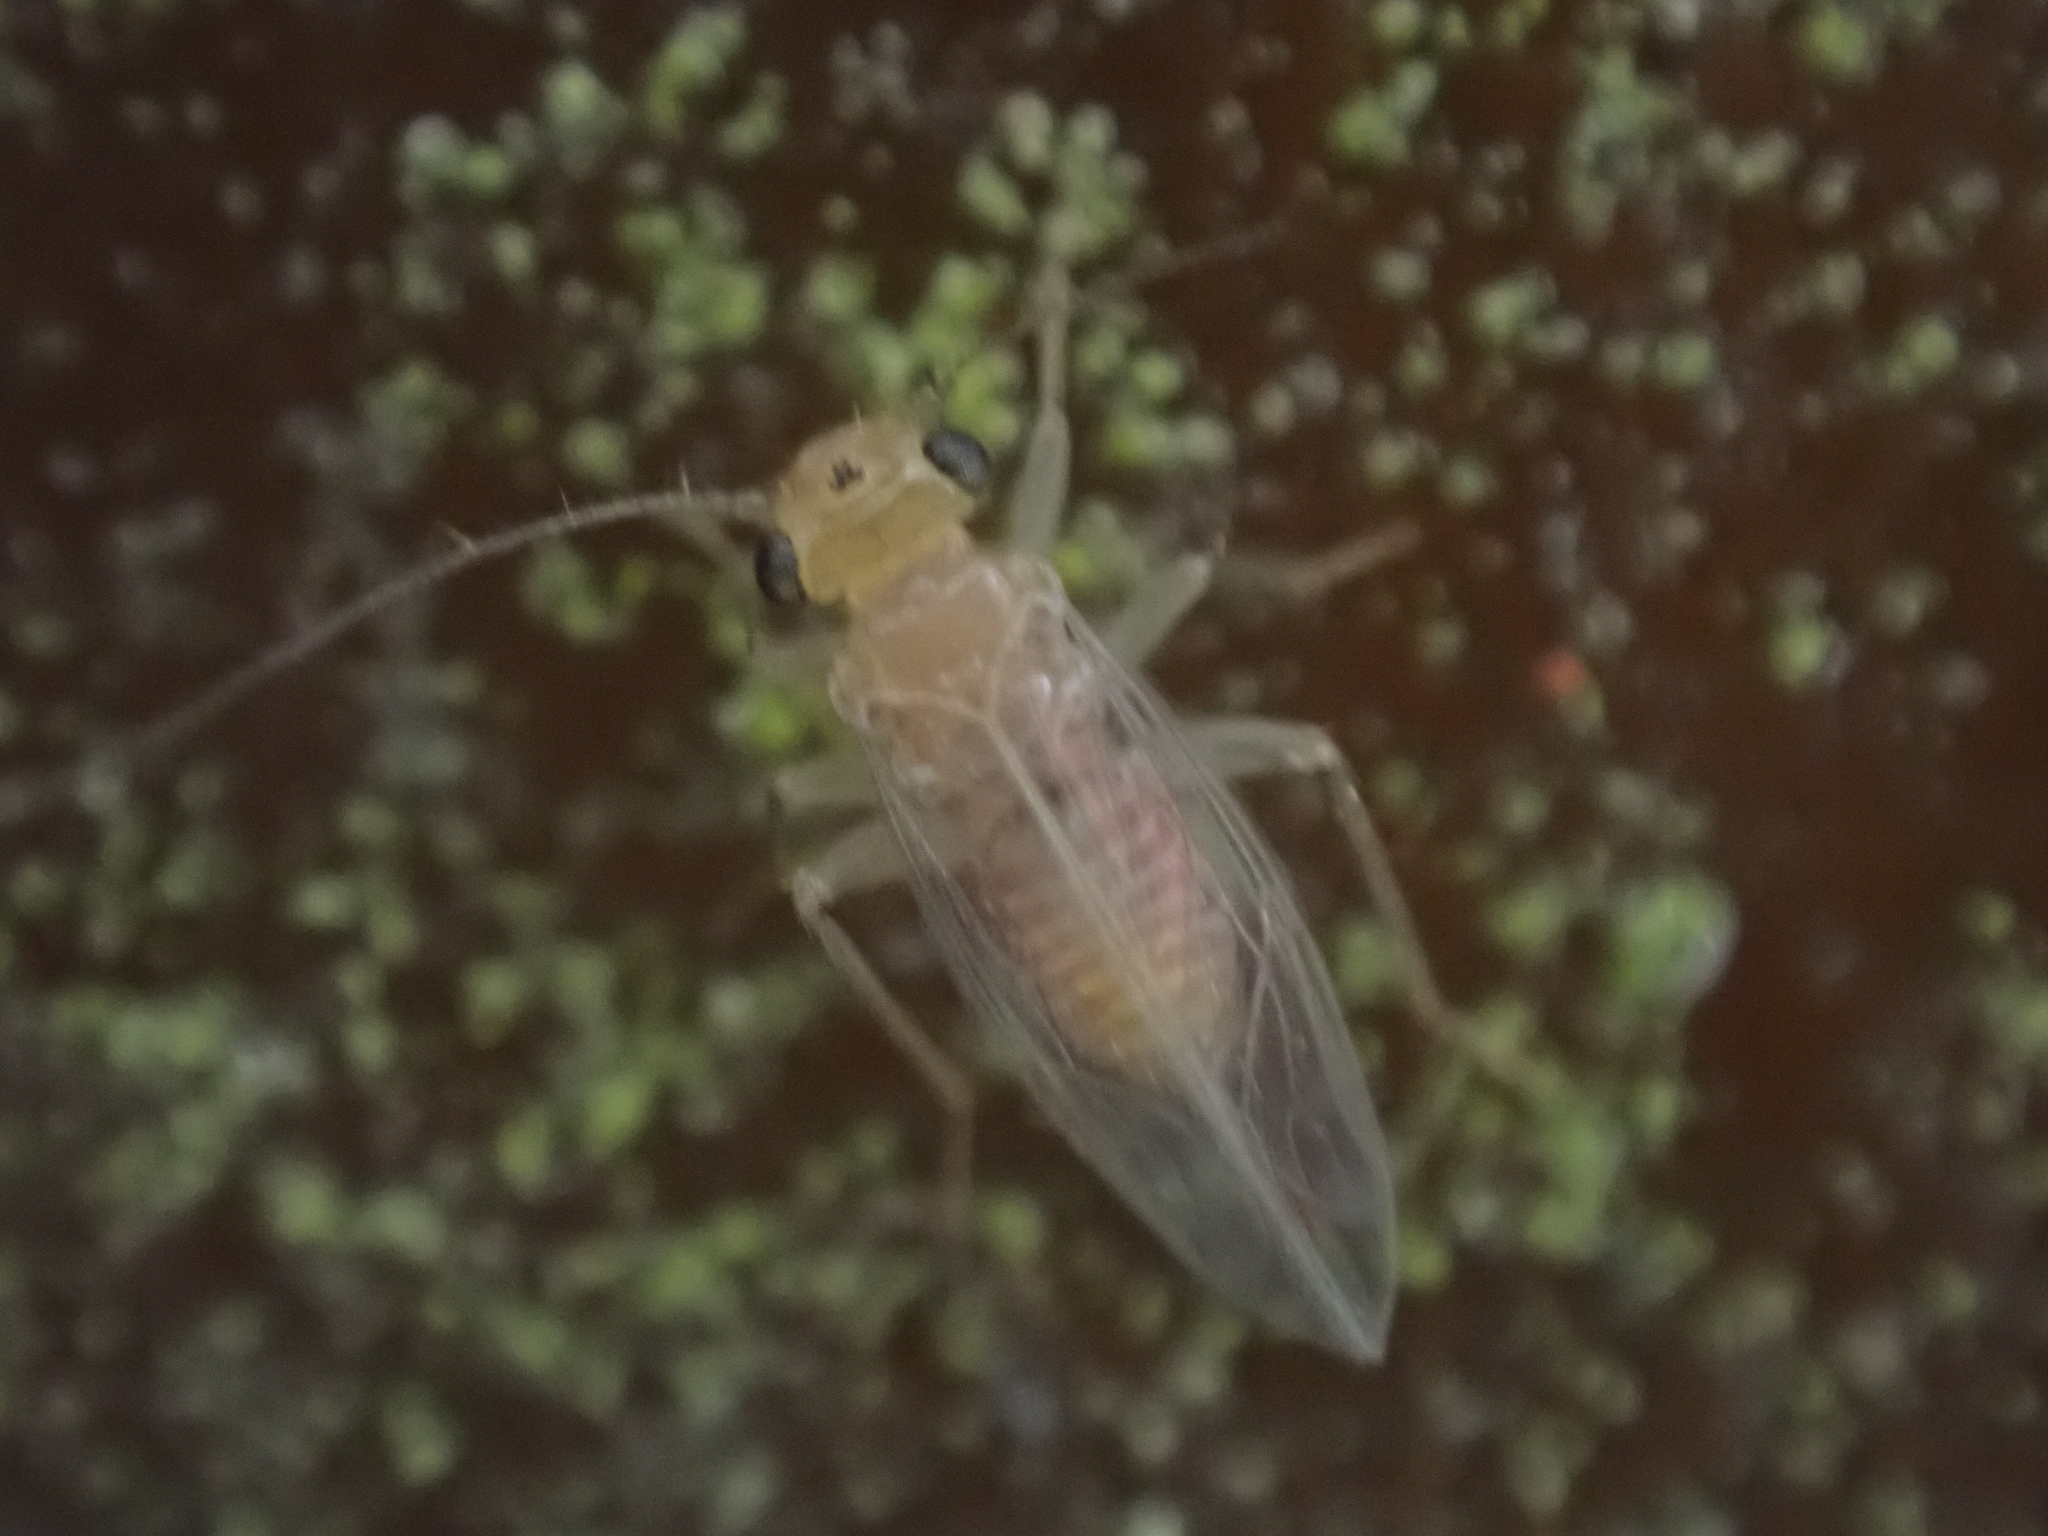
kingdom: Animalia
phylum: Arthropoda
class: Insecta
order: Psocodea
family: Hemipsocidae
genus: Hemipsocus
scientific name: Hemipsocus chloroticus
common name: Book louse
